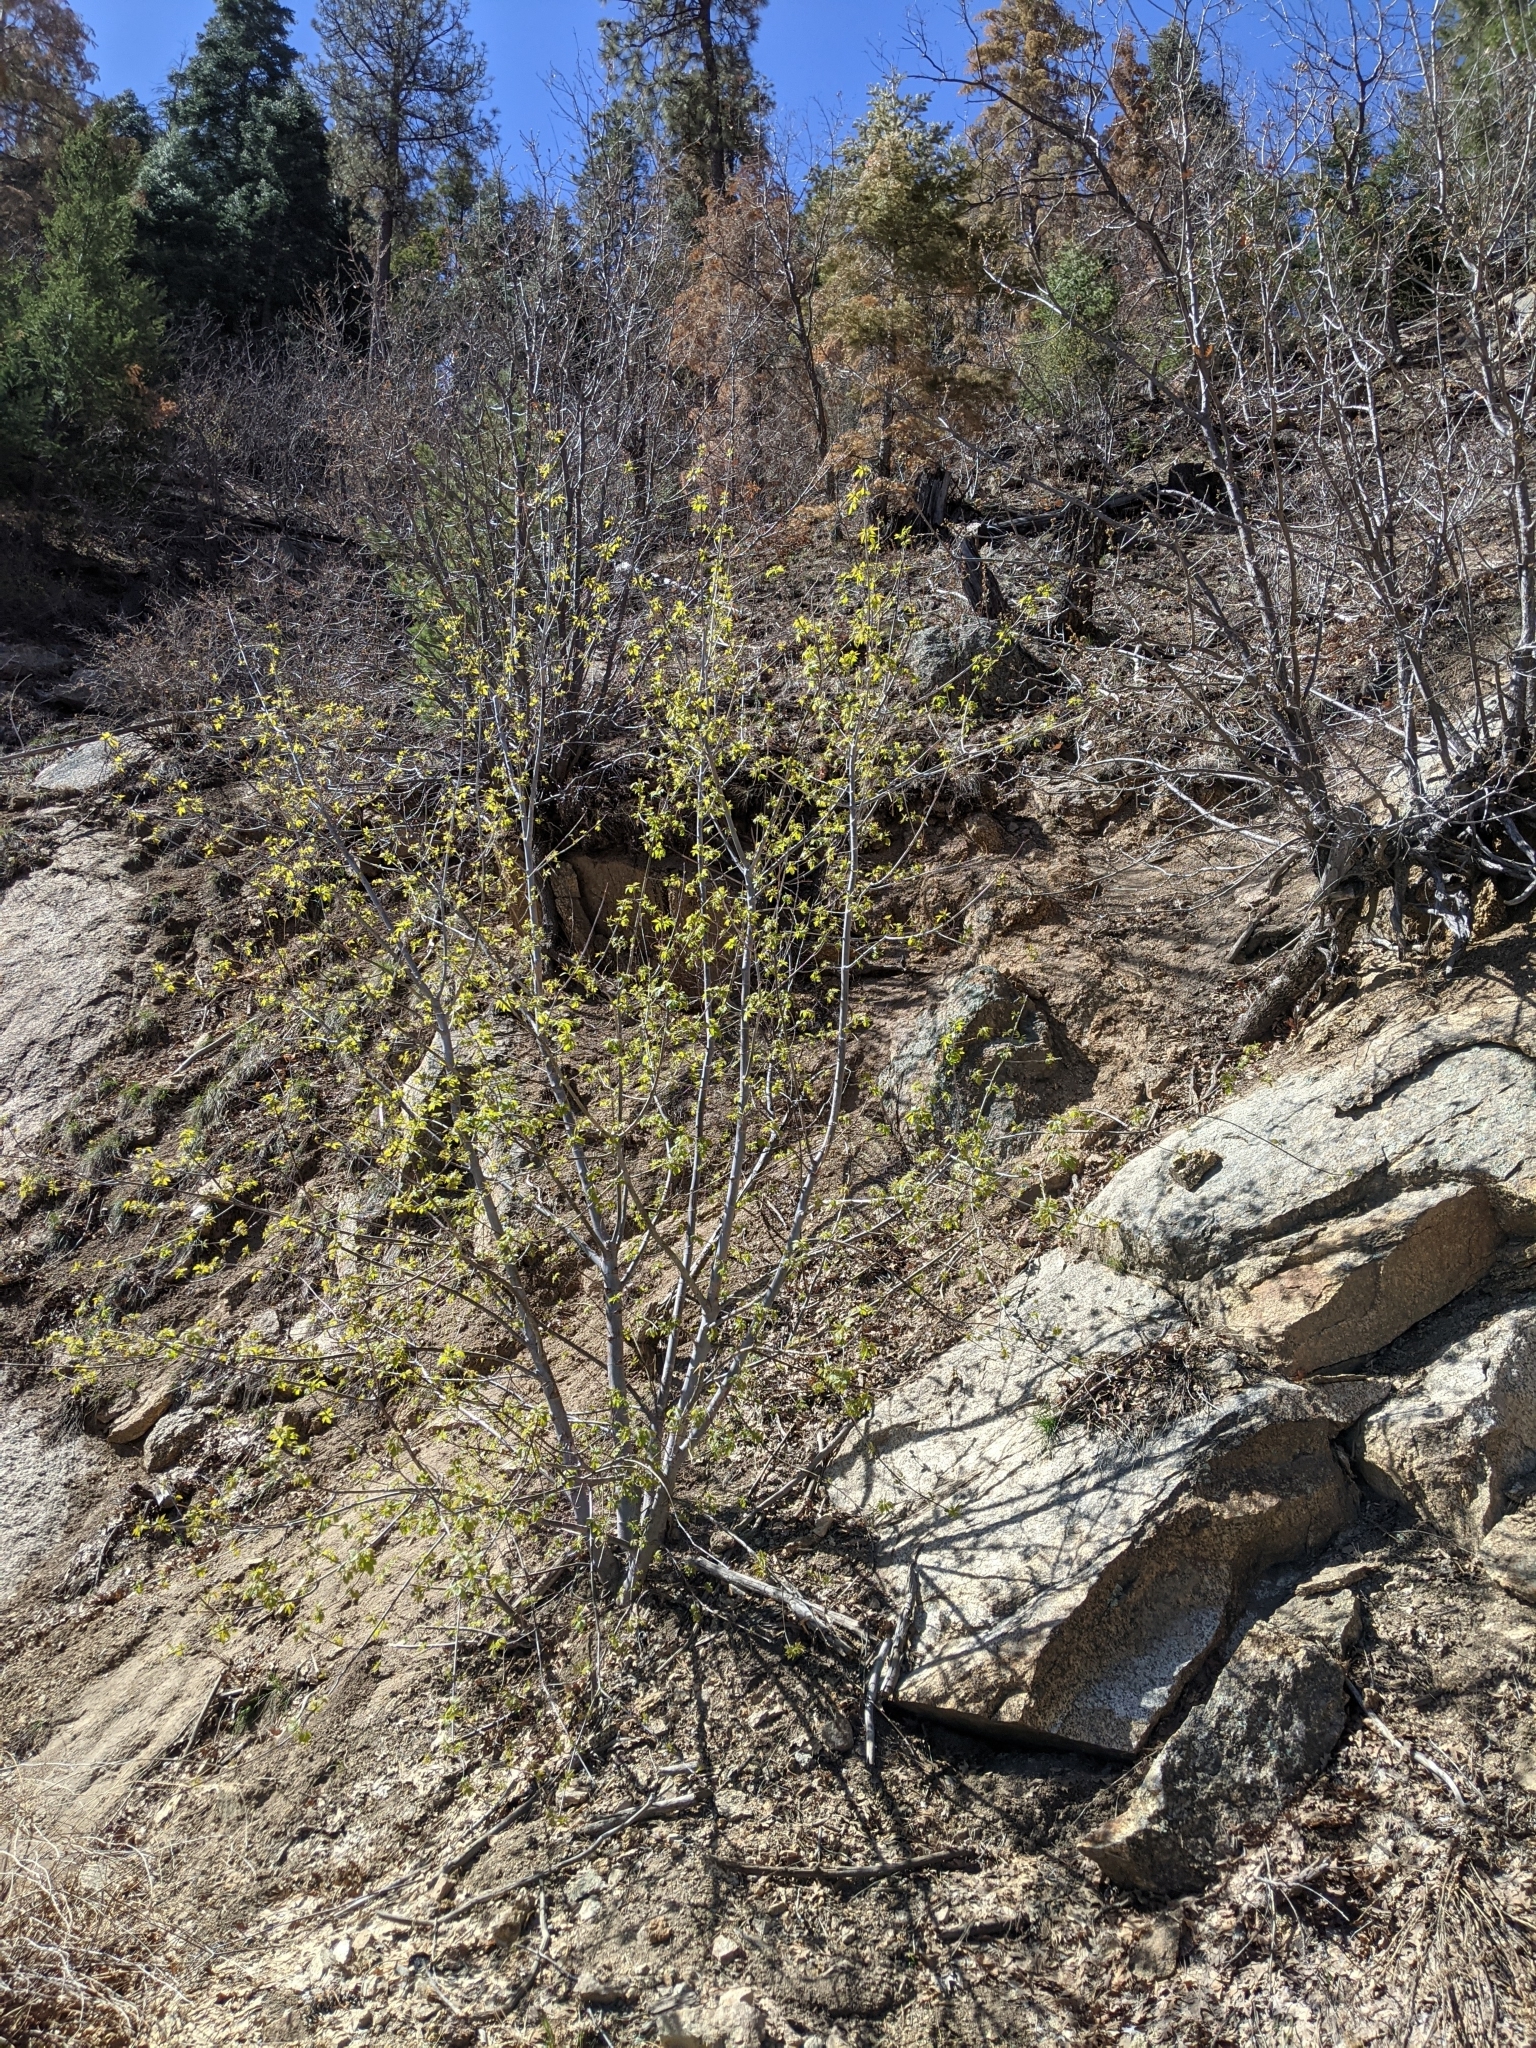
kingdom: Plantae
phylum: Tracheophyta
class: Magnoliopsida
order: Sapindales
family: Sapindaceae
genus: Acer
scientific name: Acer negundo
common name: Ashleaf maple
